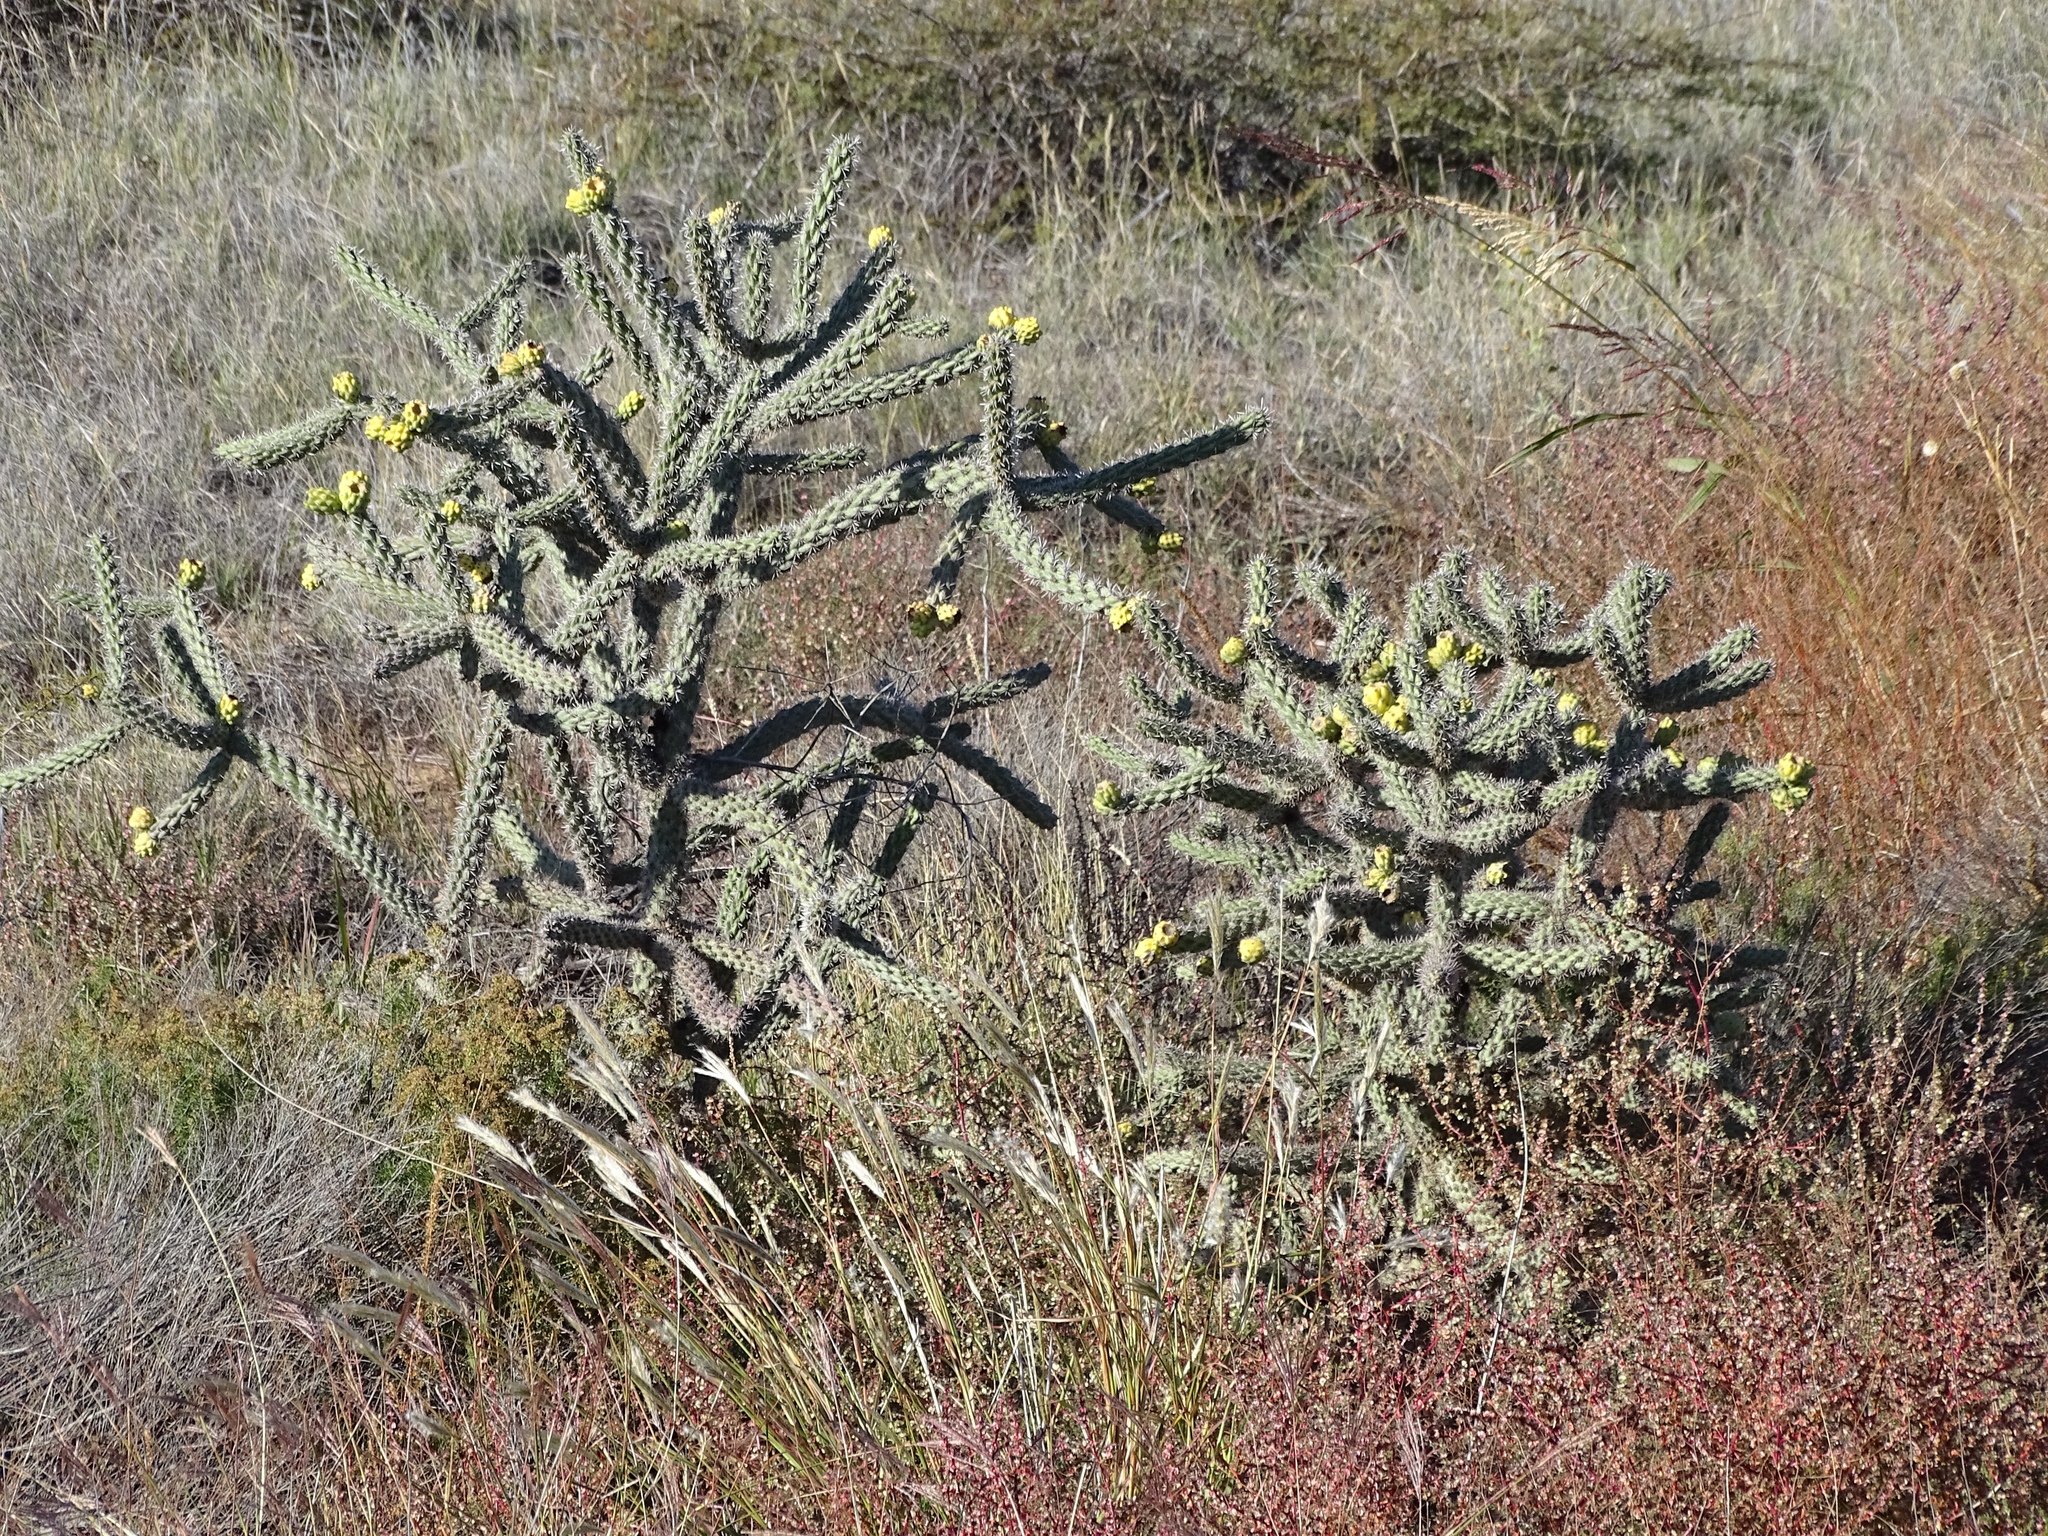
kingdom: Plantae
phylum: Tracheophyta
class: Magnoliopsida
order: Caryophyllales
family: Cactaceae
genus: Cylindropuntia
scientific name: Cylindropuntia imbricata
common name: Candelabrum cactus
